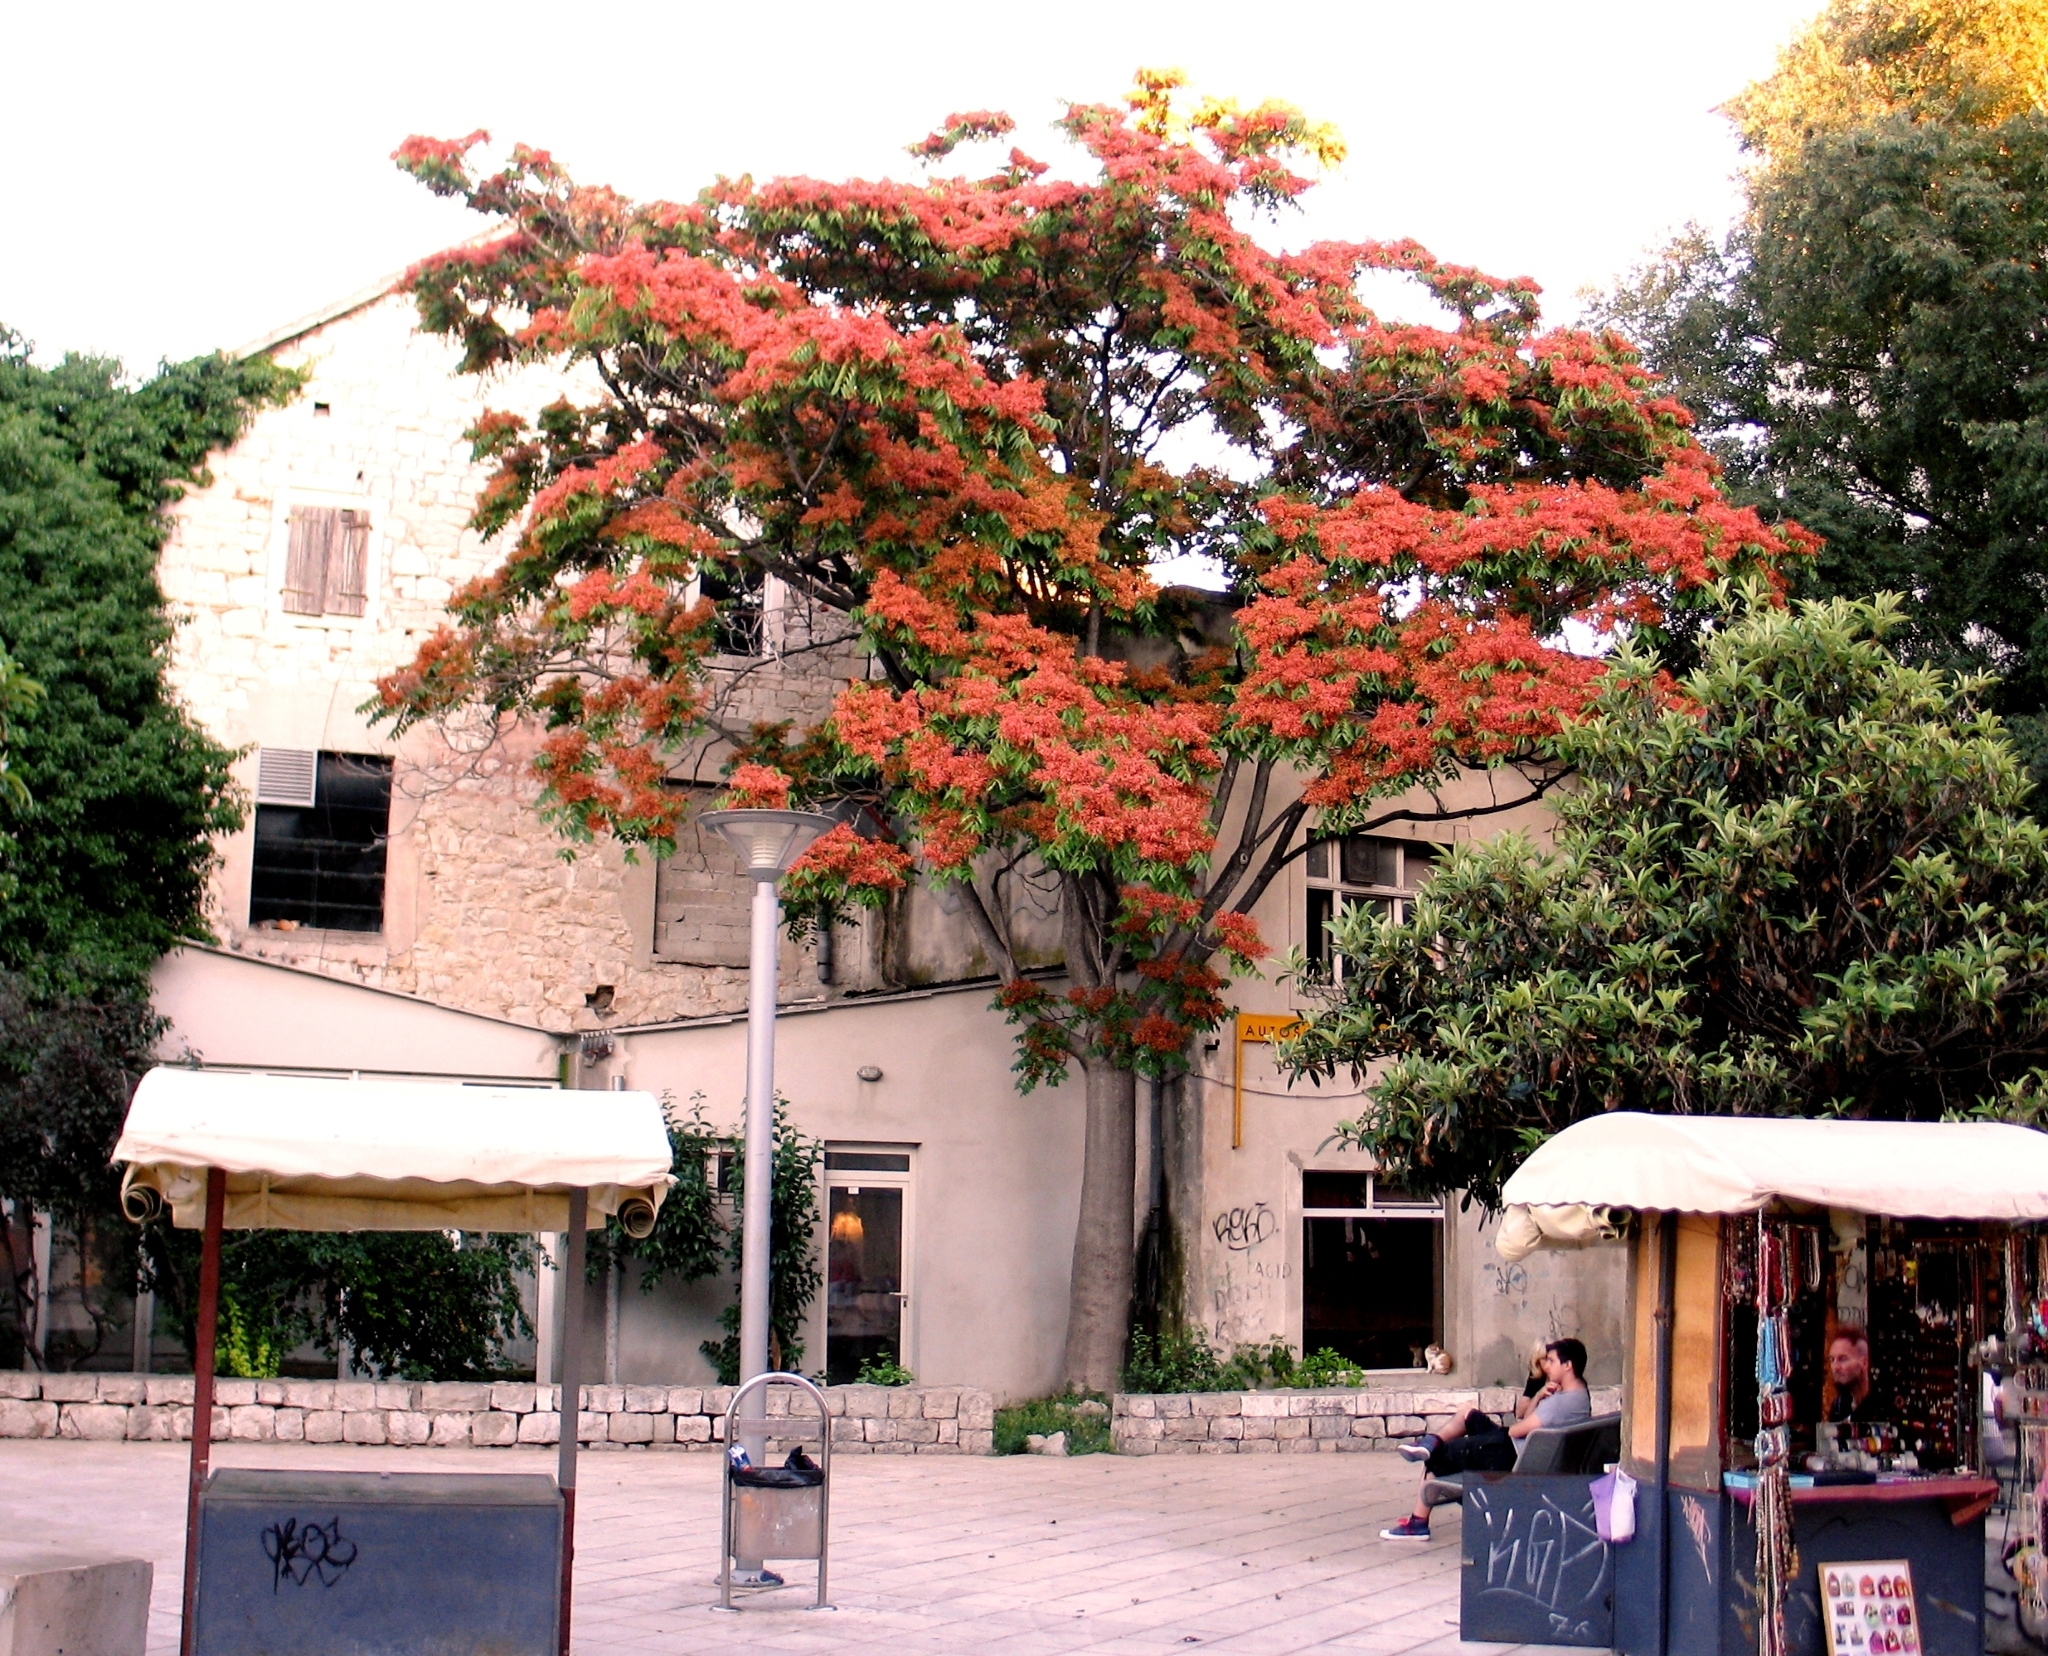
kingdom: Plantae
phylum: Tracheophyta
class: Magnoliopsida
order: Sapindales
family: Simaroubaceae
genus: Ailanthus
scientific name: Ailanthus altissima
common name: Tree-of-heaven
